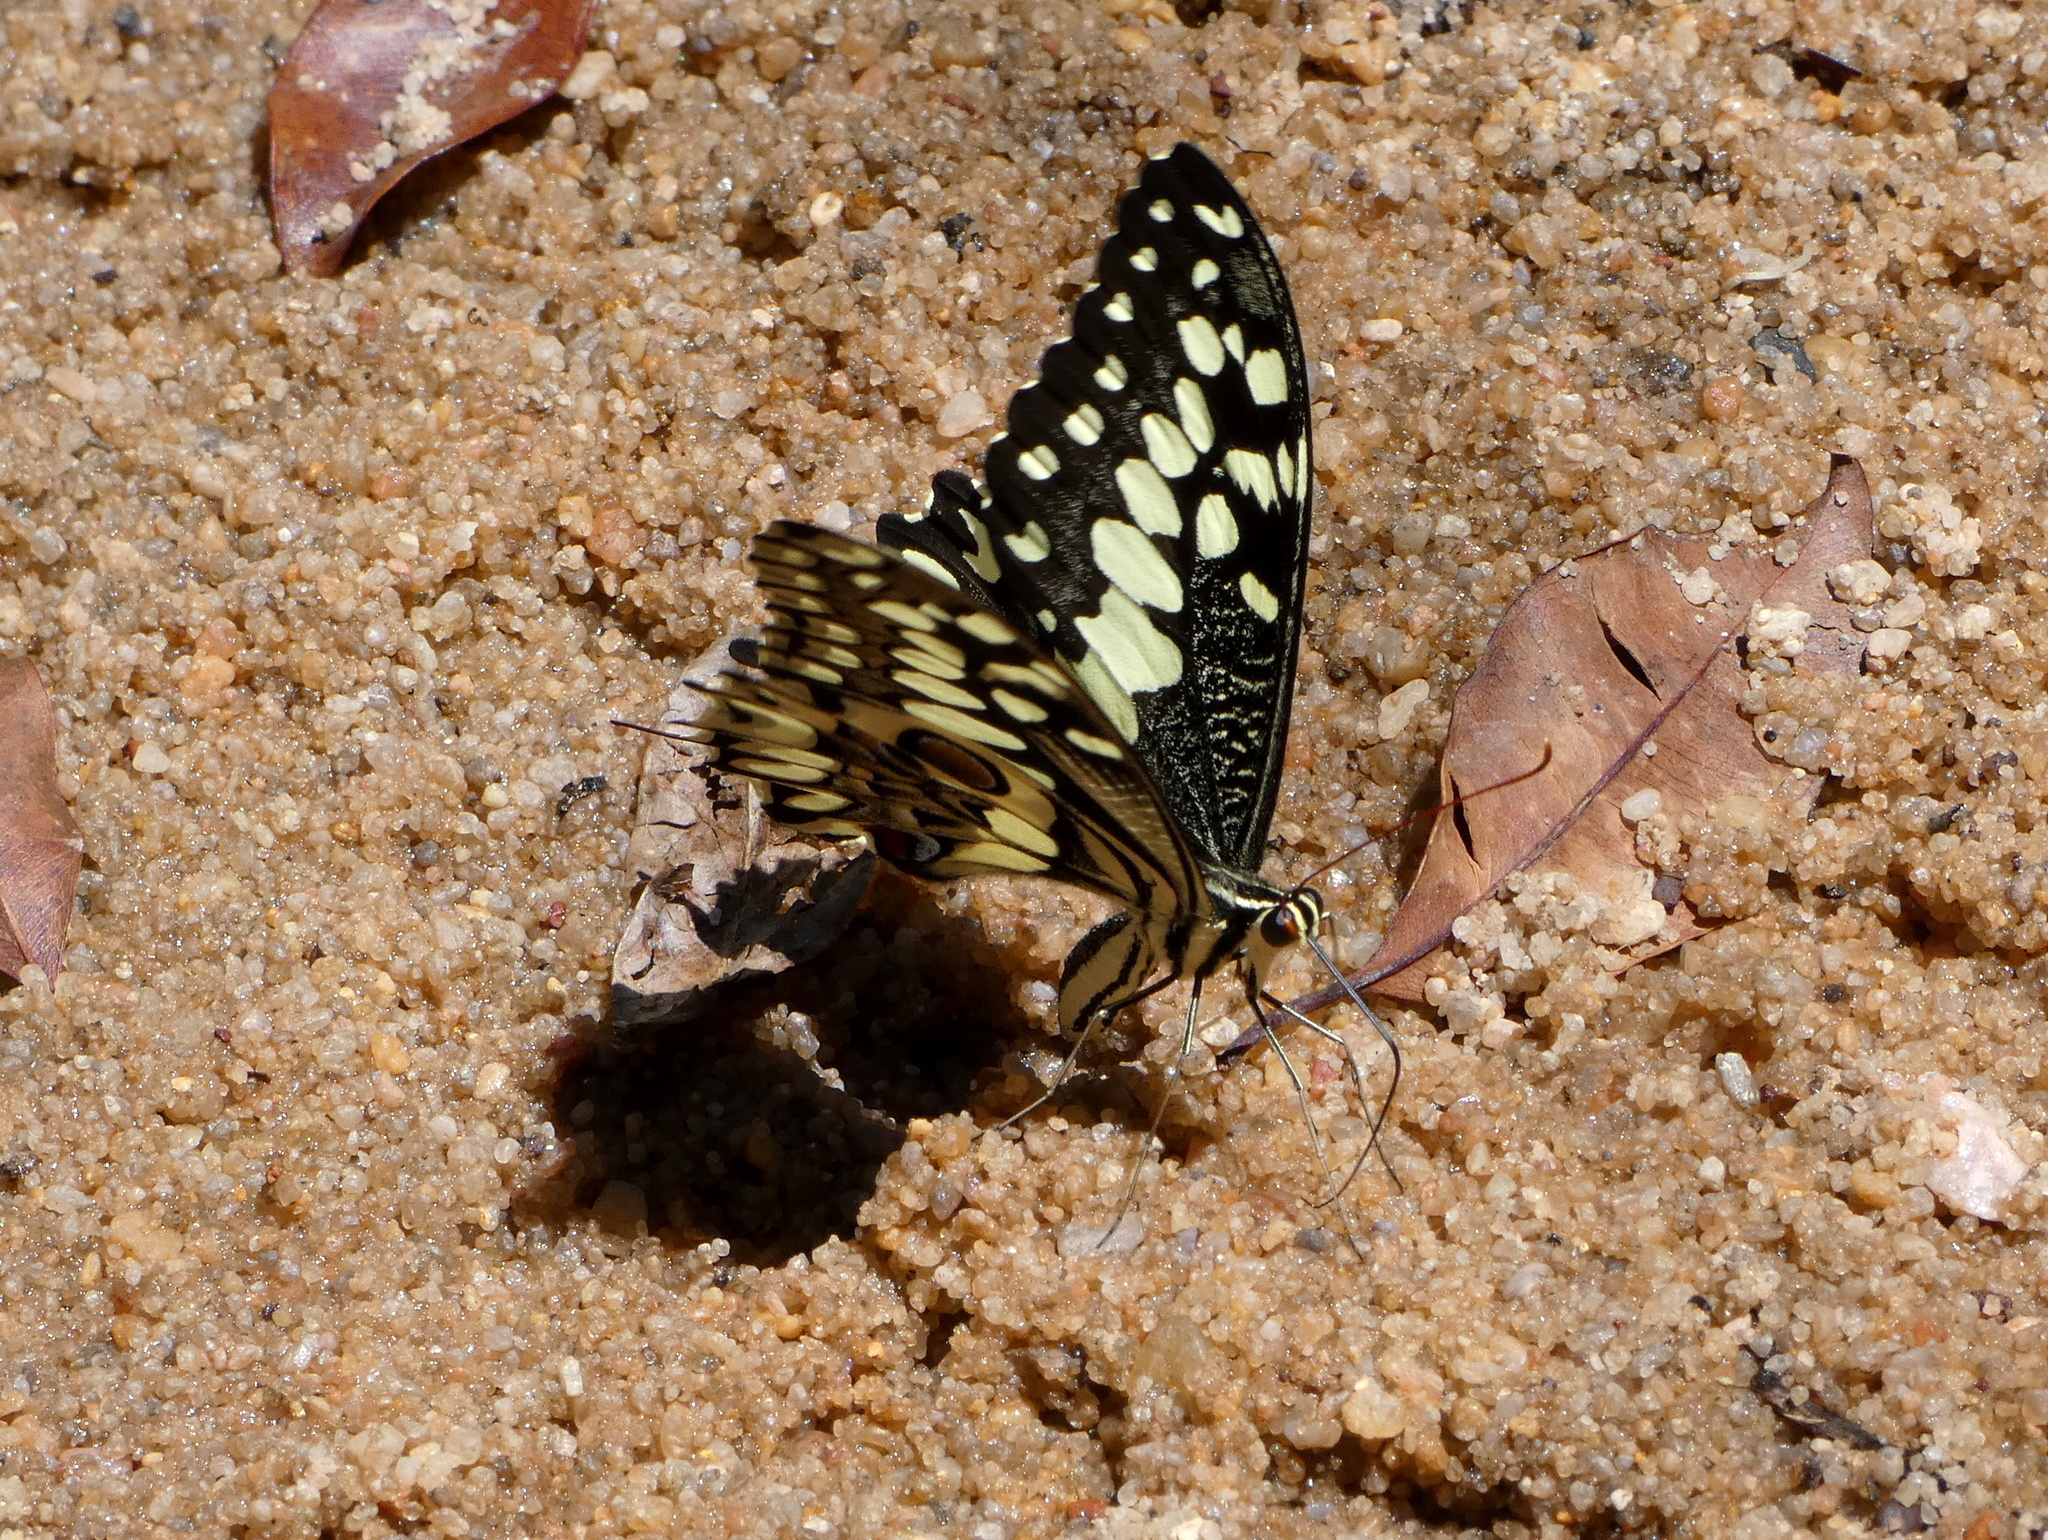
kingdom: Animalia
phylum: Arthropoda
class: Insecta
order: Lepidoptera
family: Papilionidae
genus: Papilio
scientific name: Papilio grosesmithi
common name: Grosesmith's swallowtail
